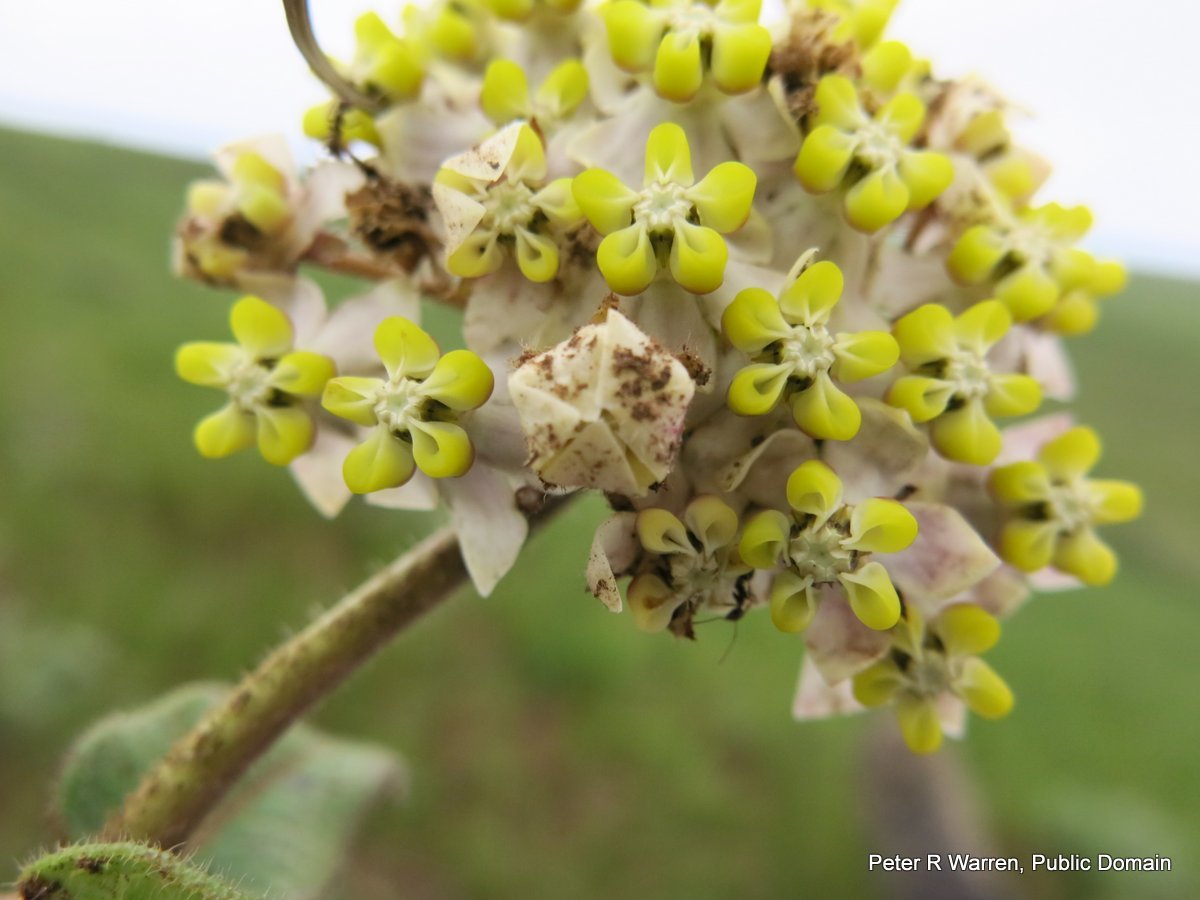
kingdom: Plantae
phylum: Tracheophyta
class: Magnoliopsida
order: Gentianales
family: Apocynaceae
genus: Asclepias
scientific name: Asclepias albens
